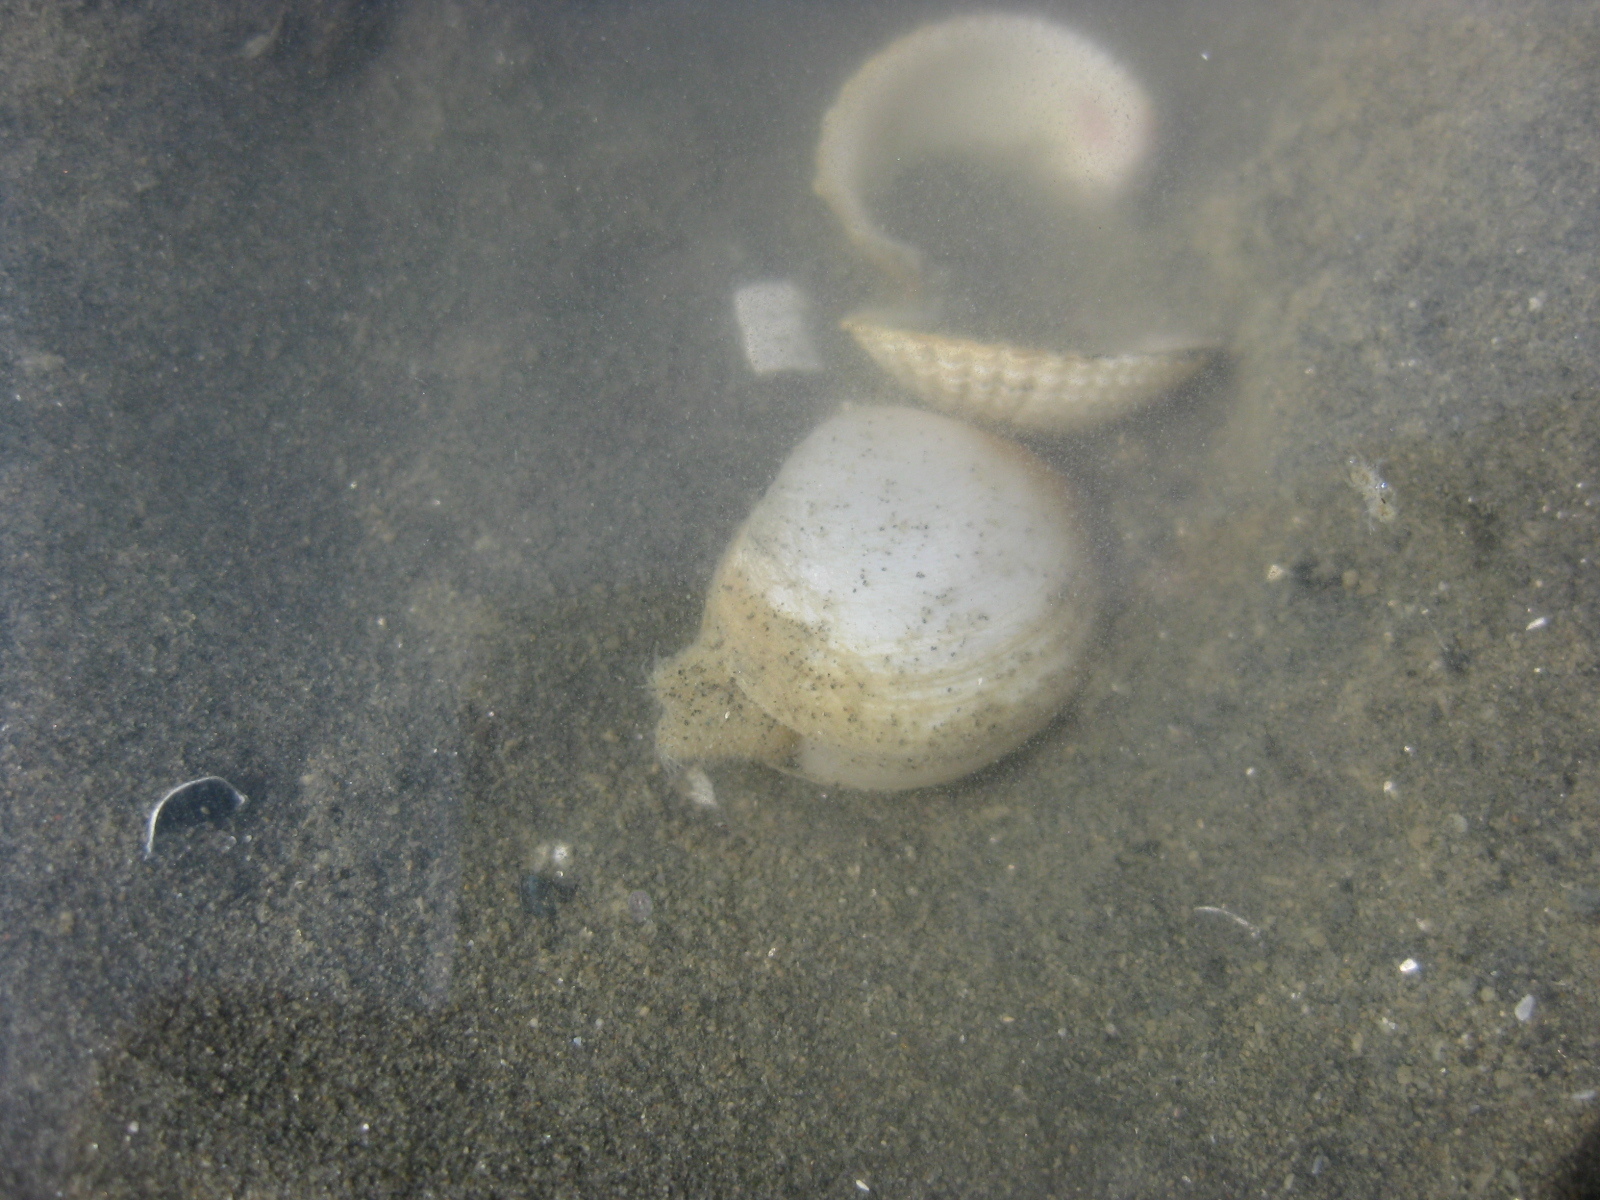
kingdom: Animalia
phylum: Mollusca
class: Bivalvia
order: Venerida
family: Mactridae
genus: Cyclomactra
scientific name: Cyclomactra ovata
